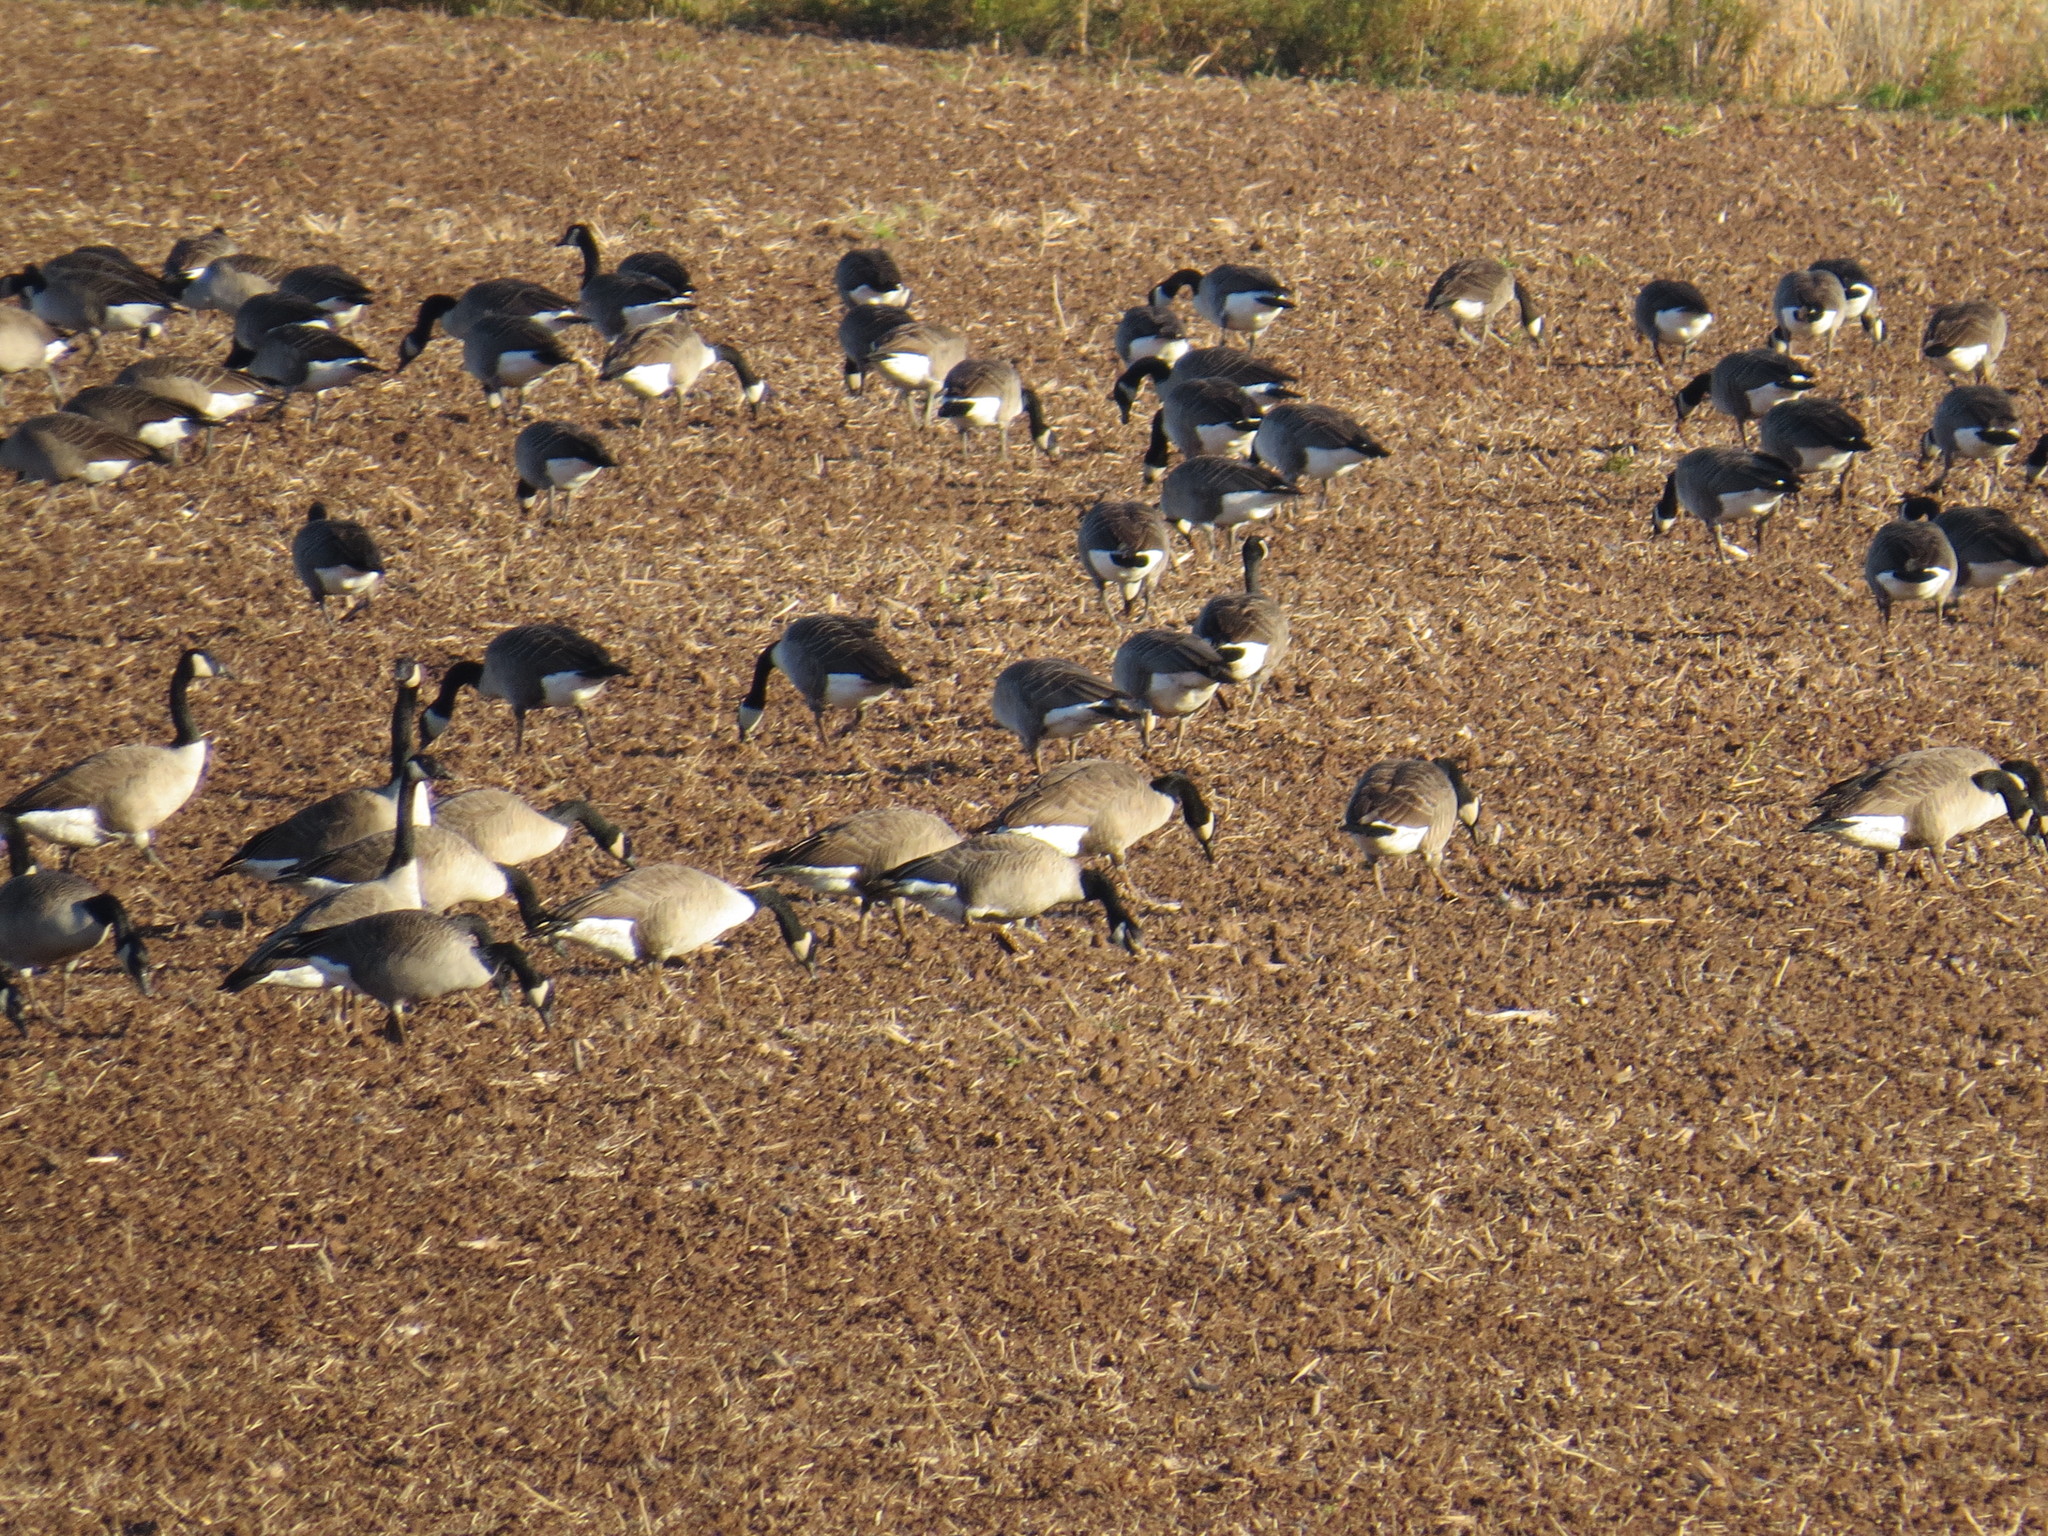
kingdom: Animalia
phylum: Chordata
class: Aves
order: Anseriformes
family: Anatidae
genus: Branta
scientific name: Branta canadensis
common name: Canada goose
